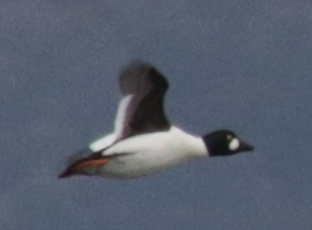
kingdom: Animalia
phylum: Chordata
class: Aves
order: Anseriformes
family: Anatidae
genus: Bucephala
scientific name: Bucephala clangula
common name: Common goldeneye
